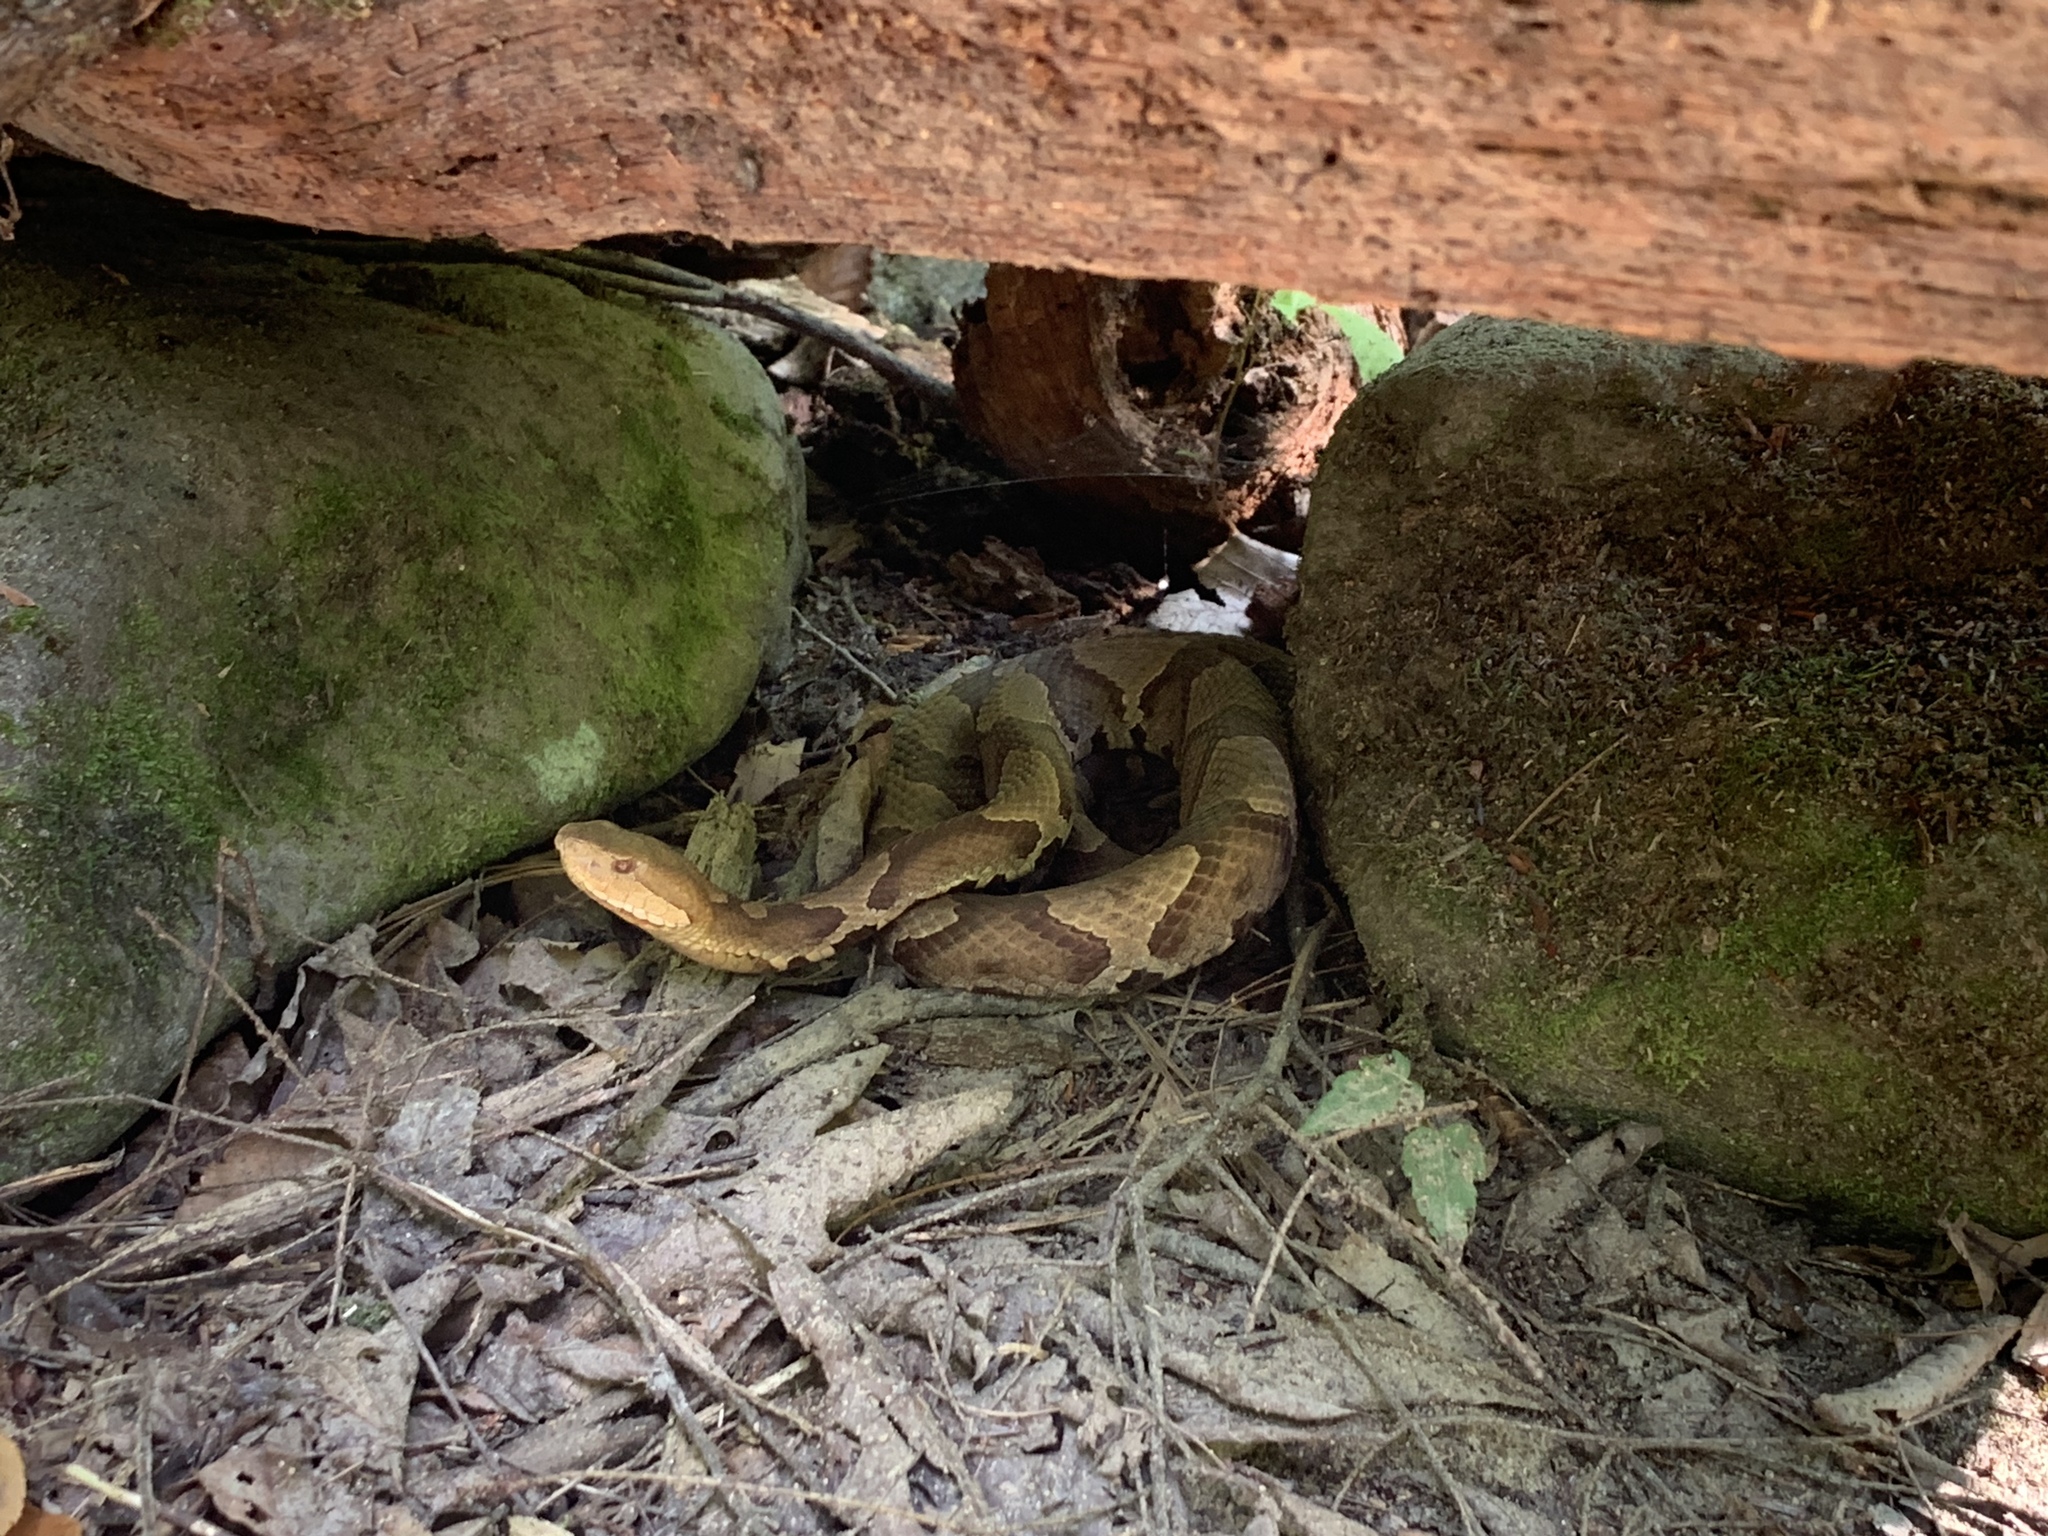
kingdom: Animalia
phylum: Chordata
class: Squamata
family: Viperidae
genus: Agkistrodon
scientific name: Agkistrodon contortrix
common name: Northern copperhead
